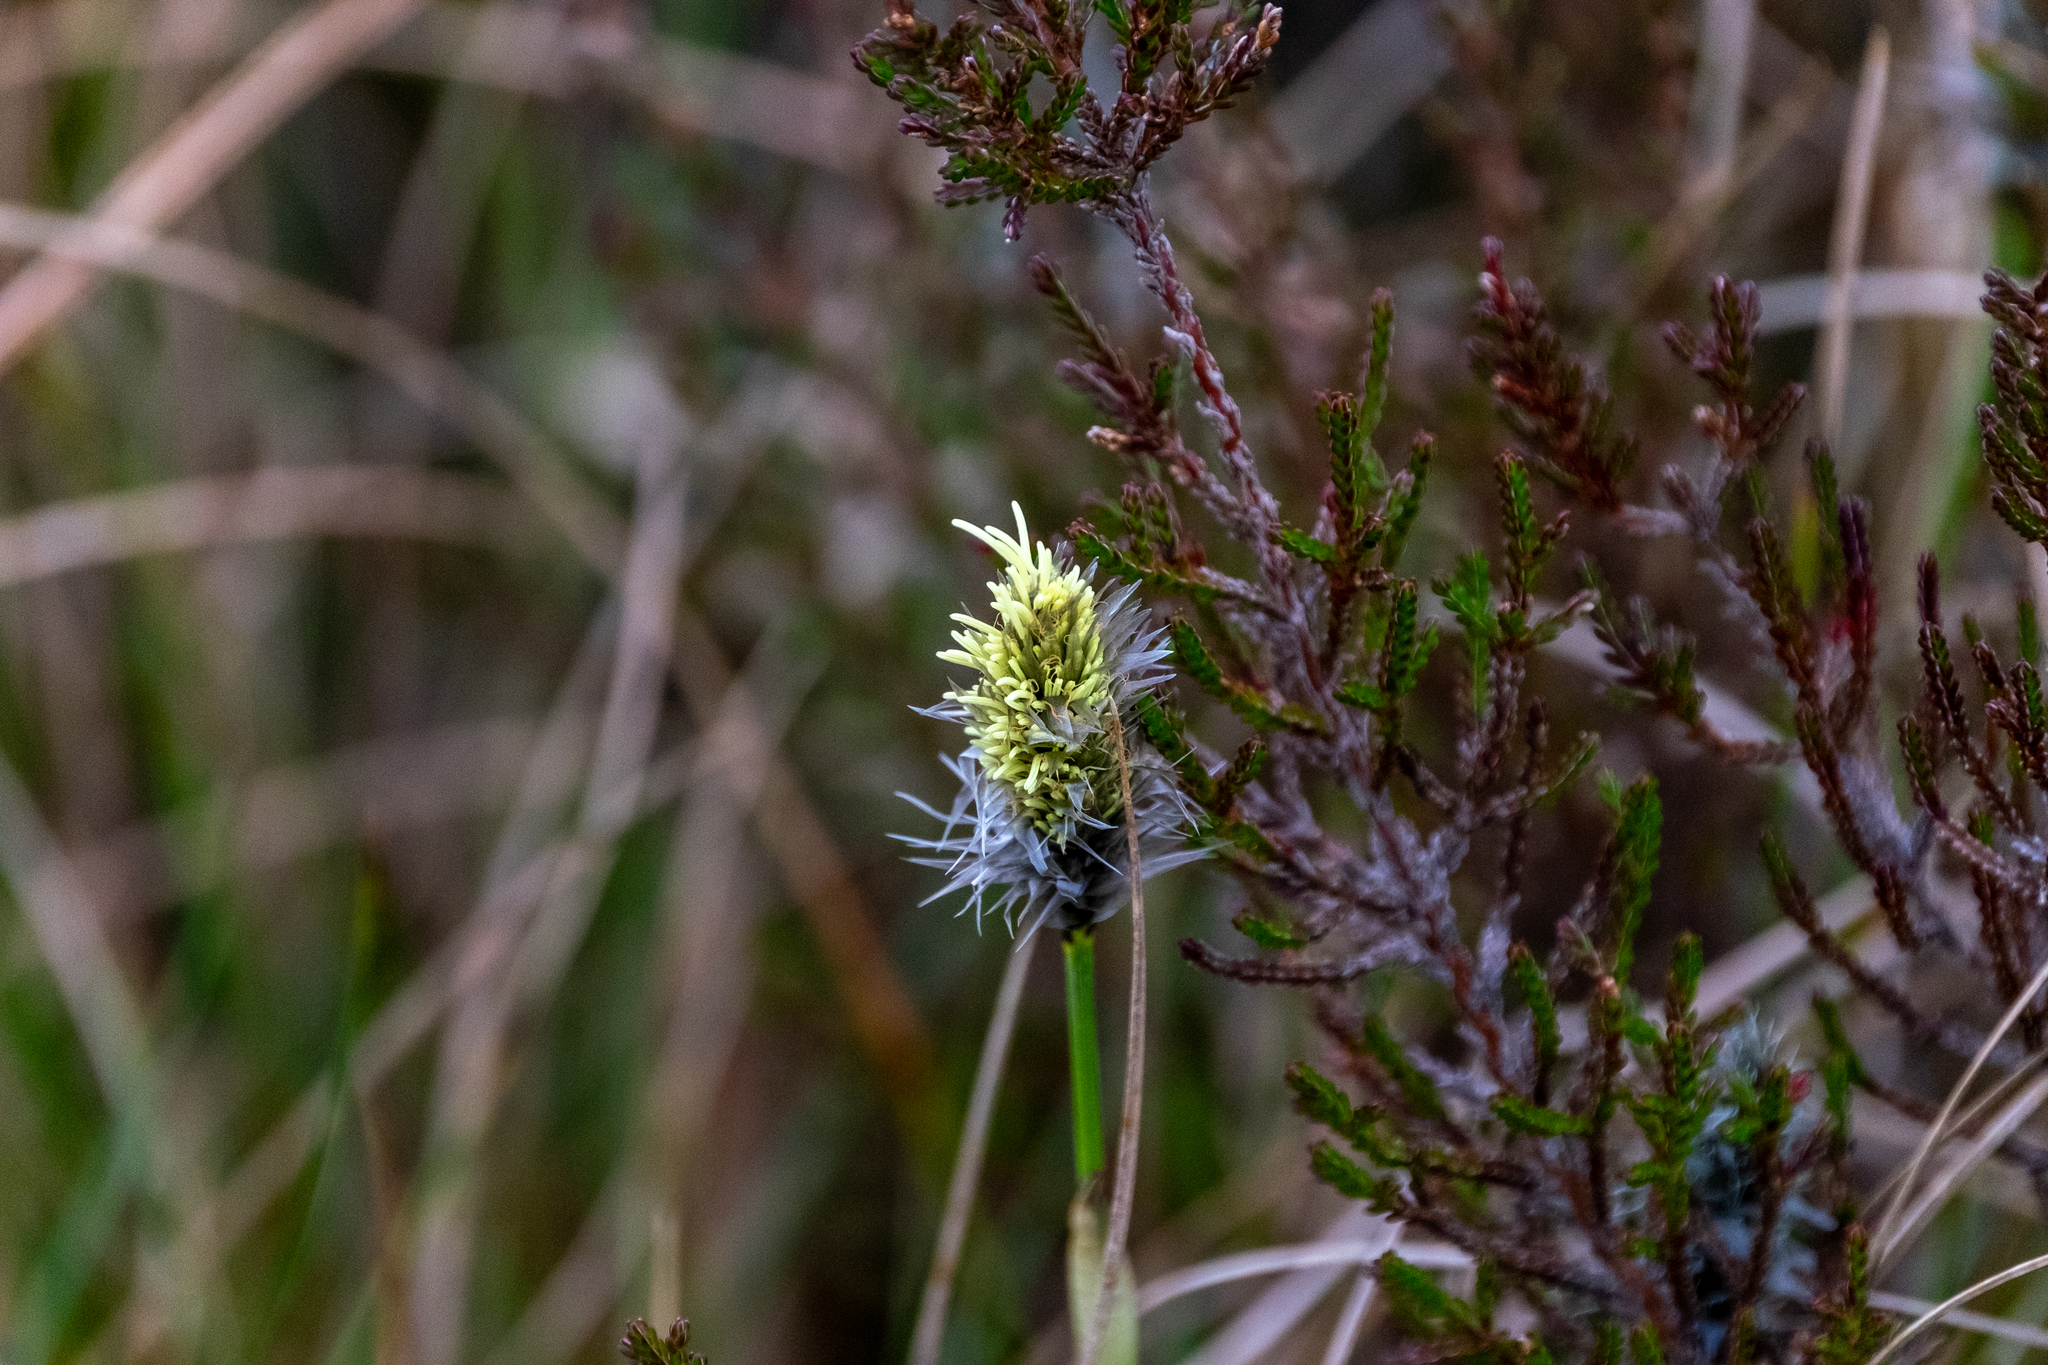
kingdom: Plantae
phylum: Tracheophyta
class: Liliopsida
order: Poales
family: Cyperaceae
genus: Eriophorum
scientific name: Eriophorum vaginatum
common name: Hare's-tail cottongrass
